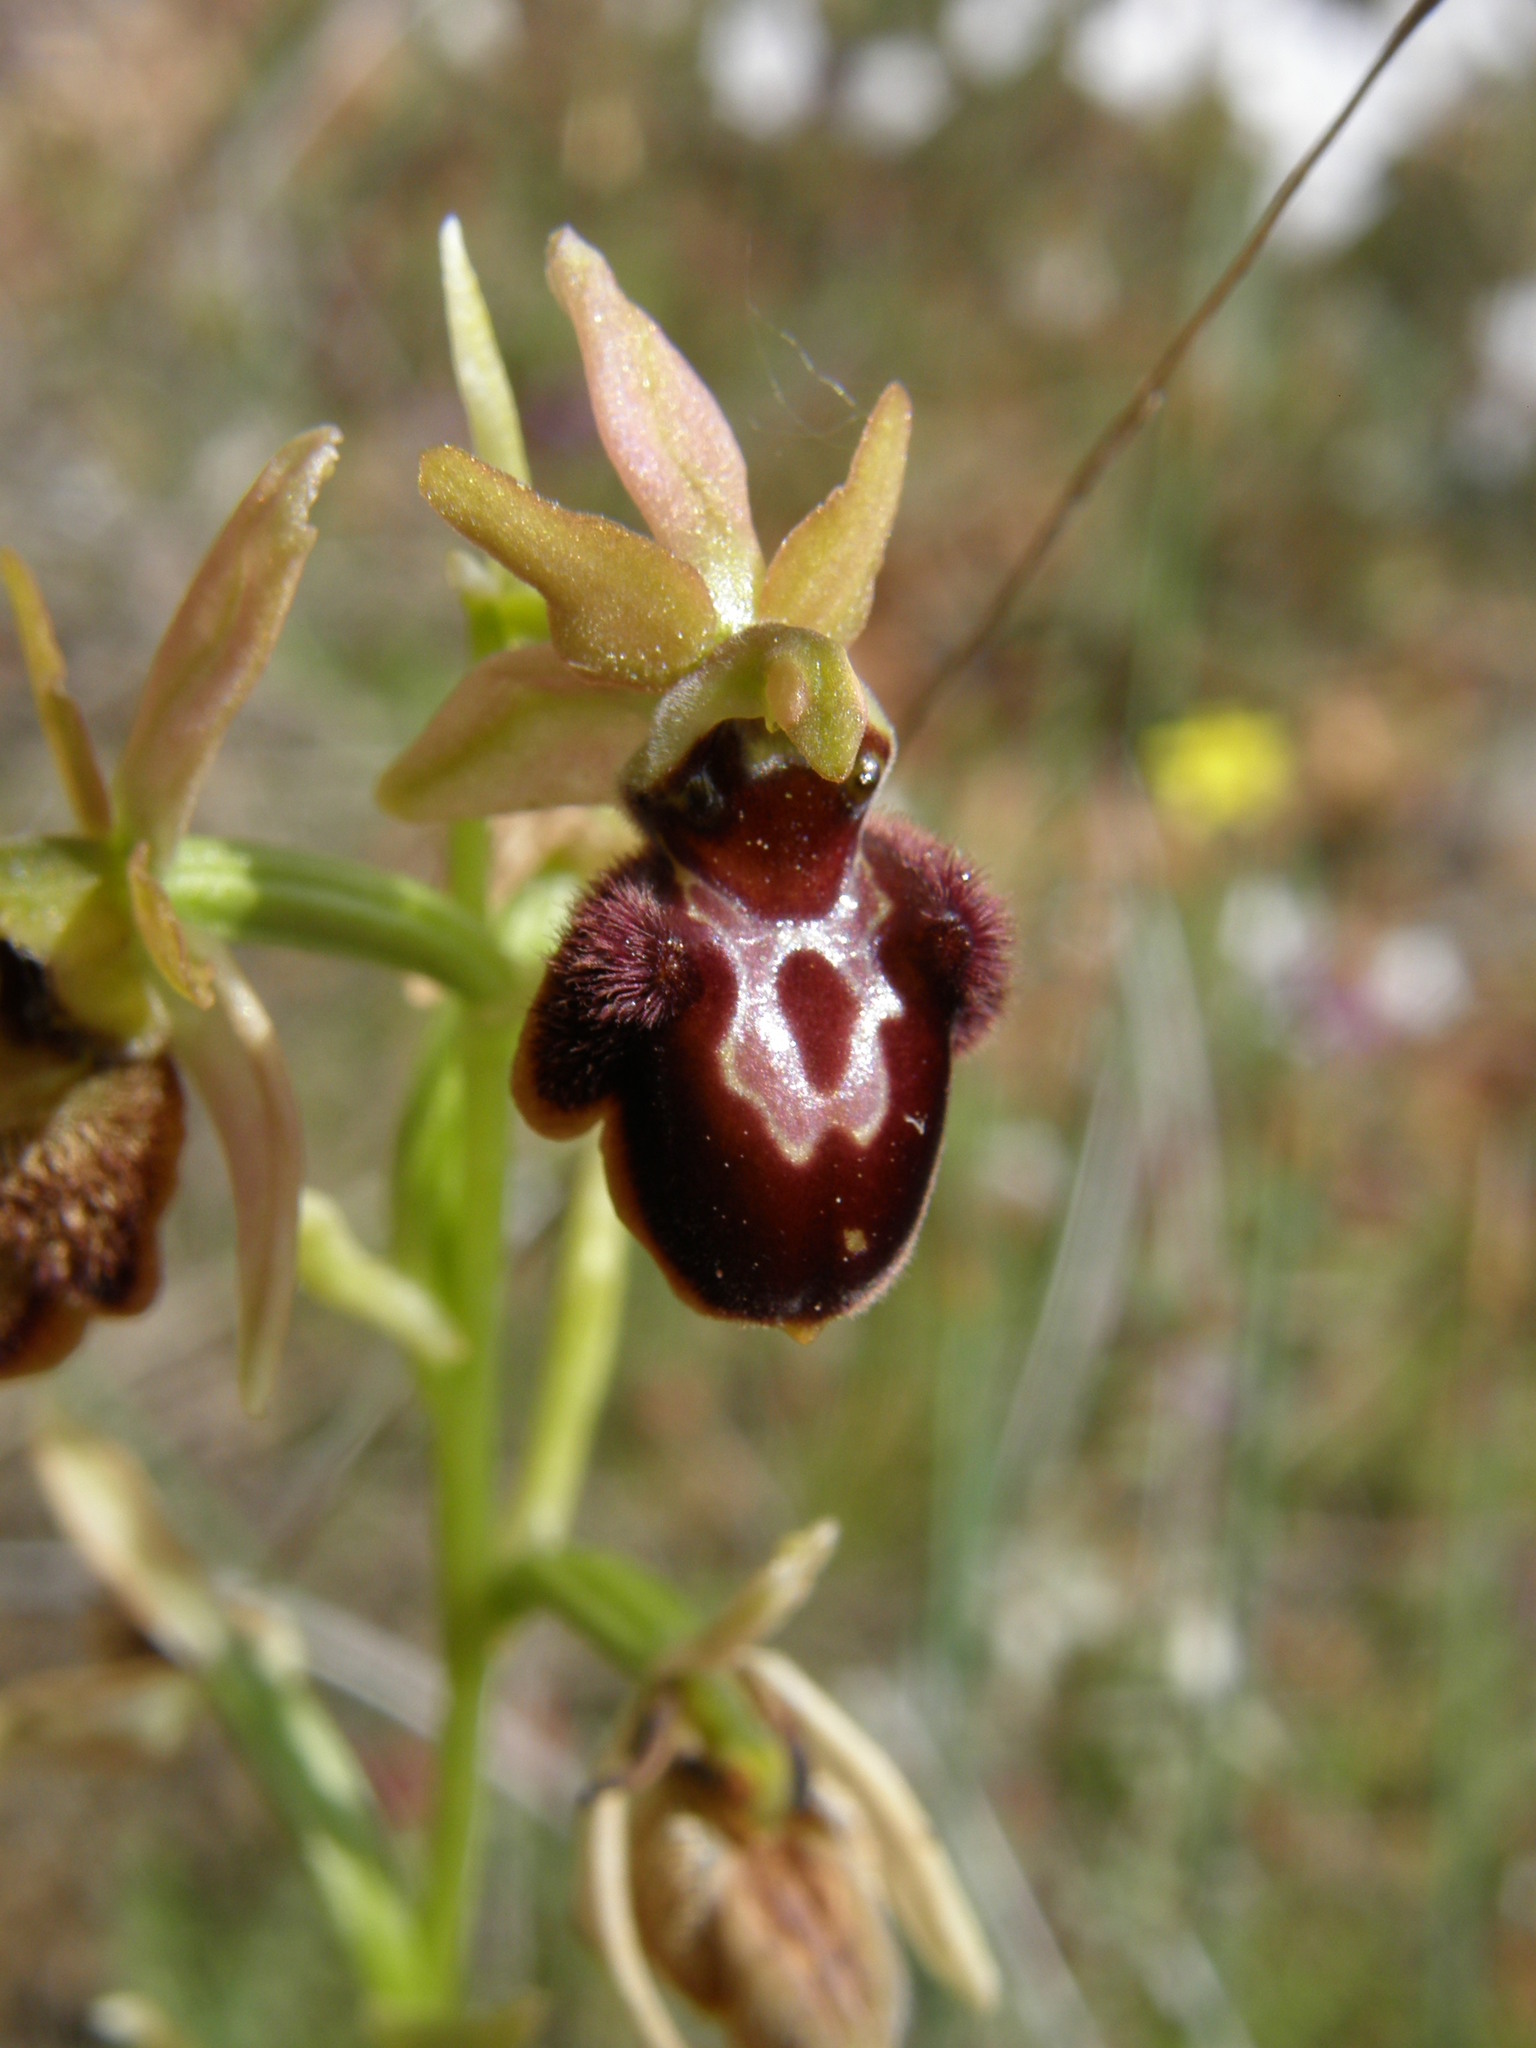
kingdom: Plantae
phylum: Tracheophyta
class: Liliopsida
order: Asparagales
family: Orchidaceae
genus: Ophrys
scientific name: Ophrys sphegodes
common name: Early spider-orchid
